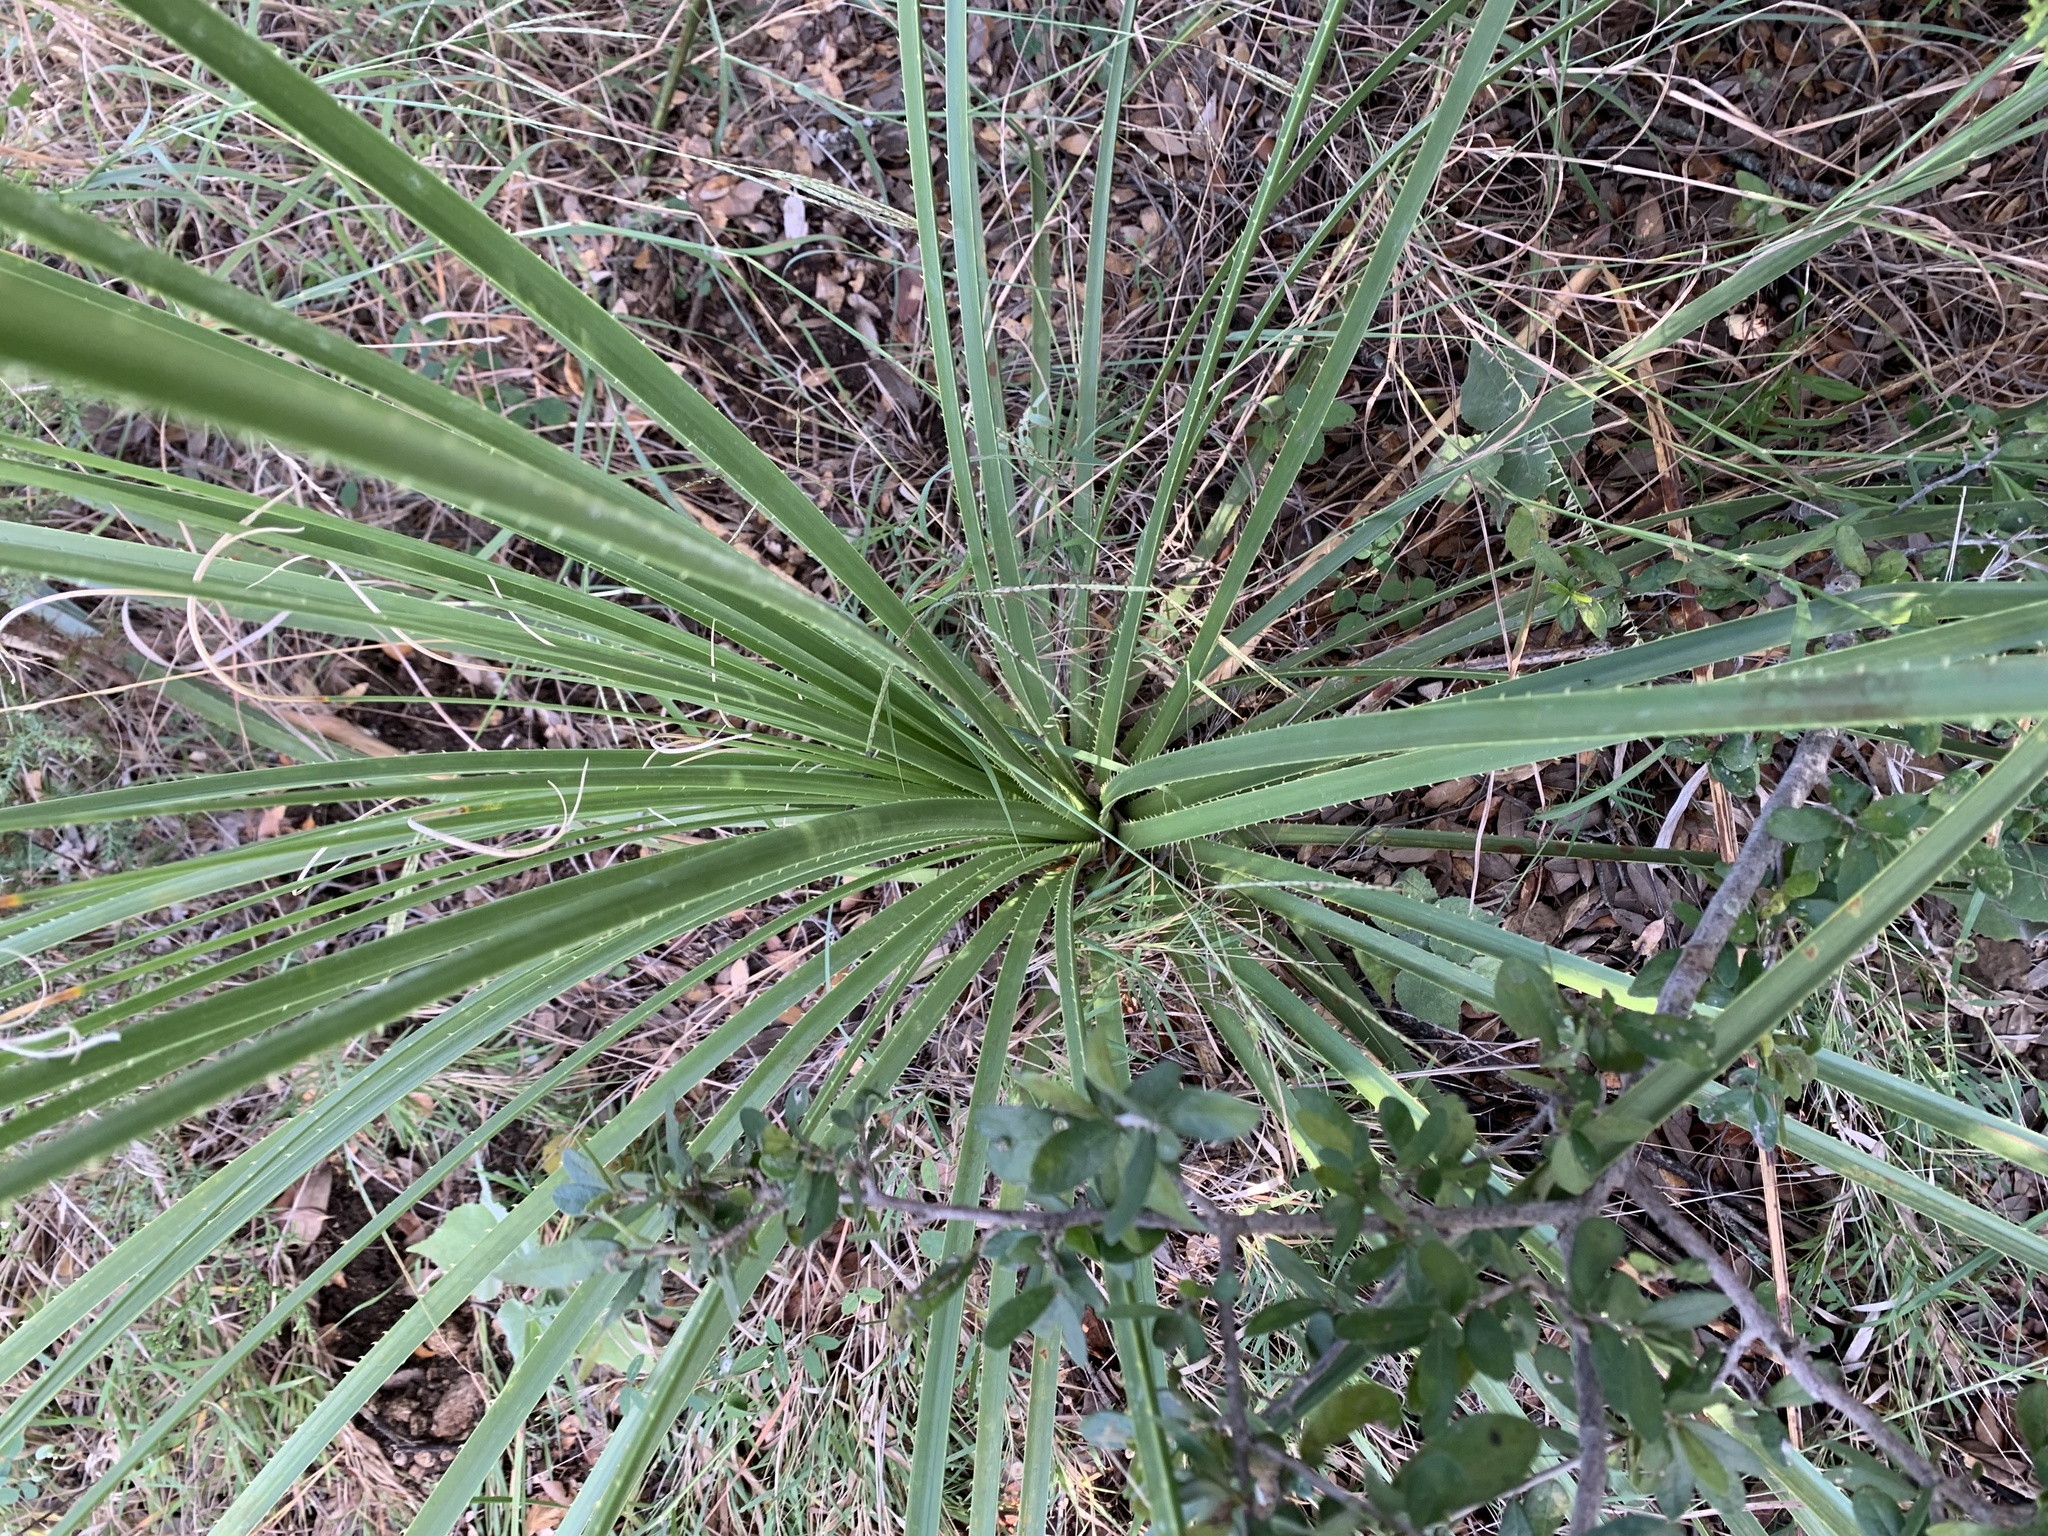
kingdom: Plantae
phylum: Tracheophyta
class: Liliopsida
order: Asparagales
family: Asparagaceae
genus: Dasylirion
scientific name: Dasylirion texanum
